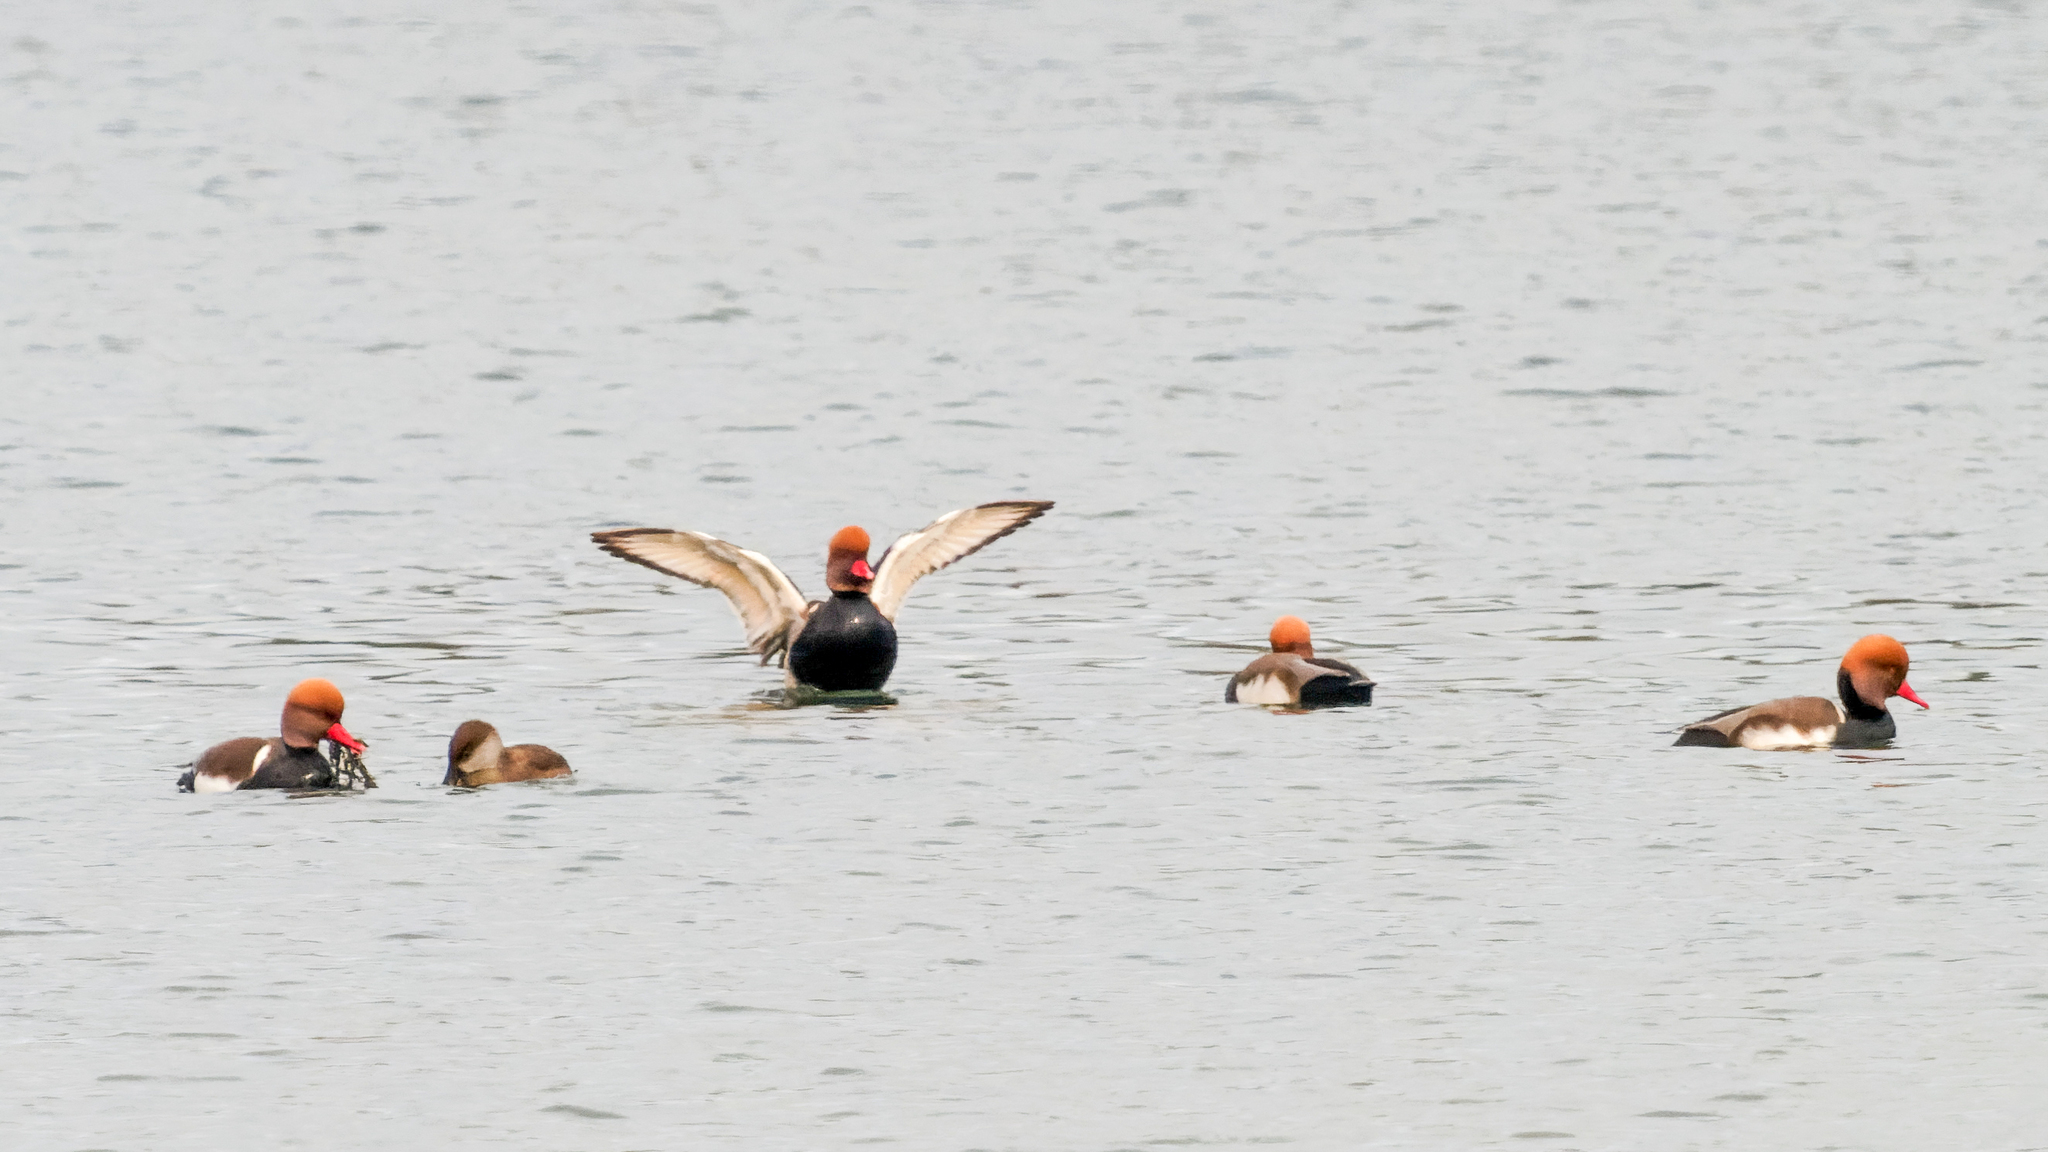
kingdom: Animalia
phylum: Chordata
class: Aves
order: Anseriformes
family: Anatidae
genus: Netta
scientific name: Netta rufina
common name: Red-crested pochard
